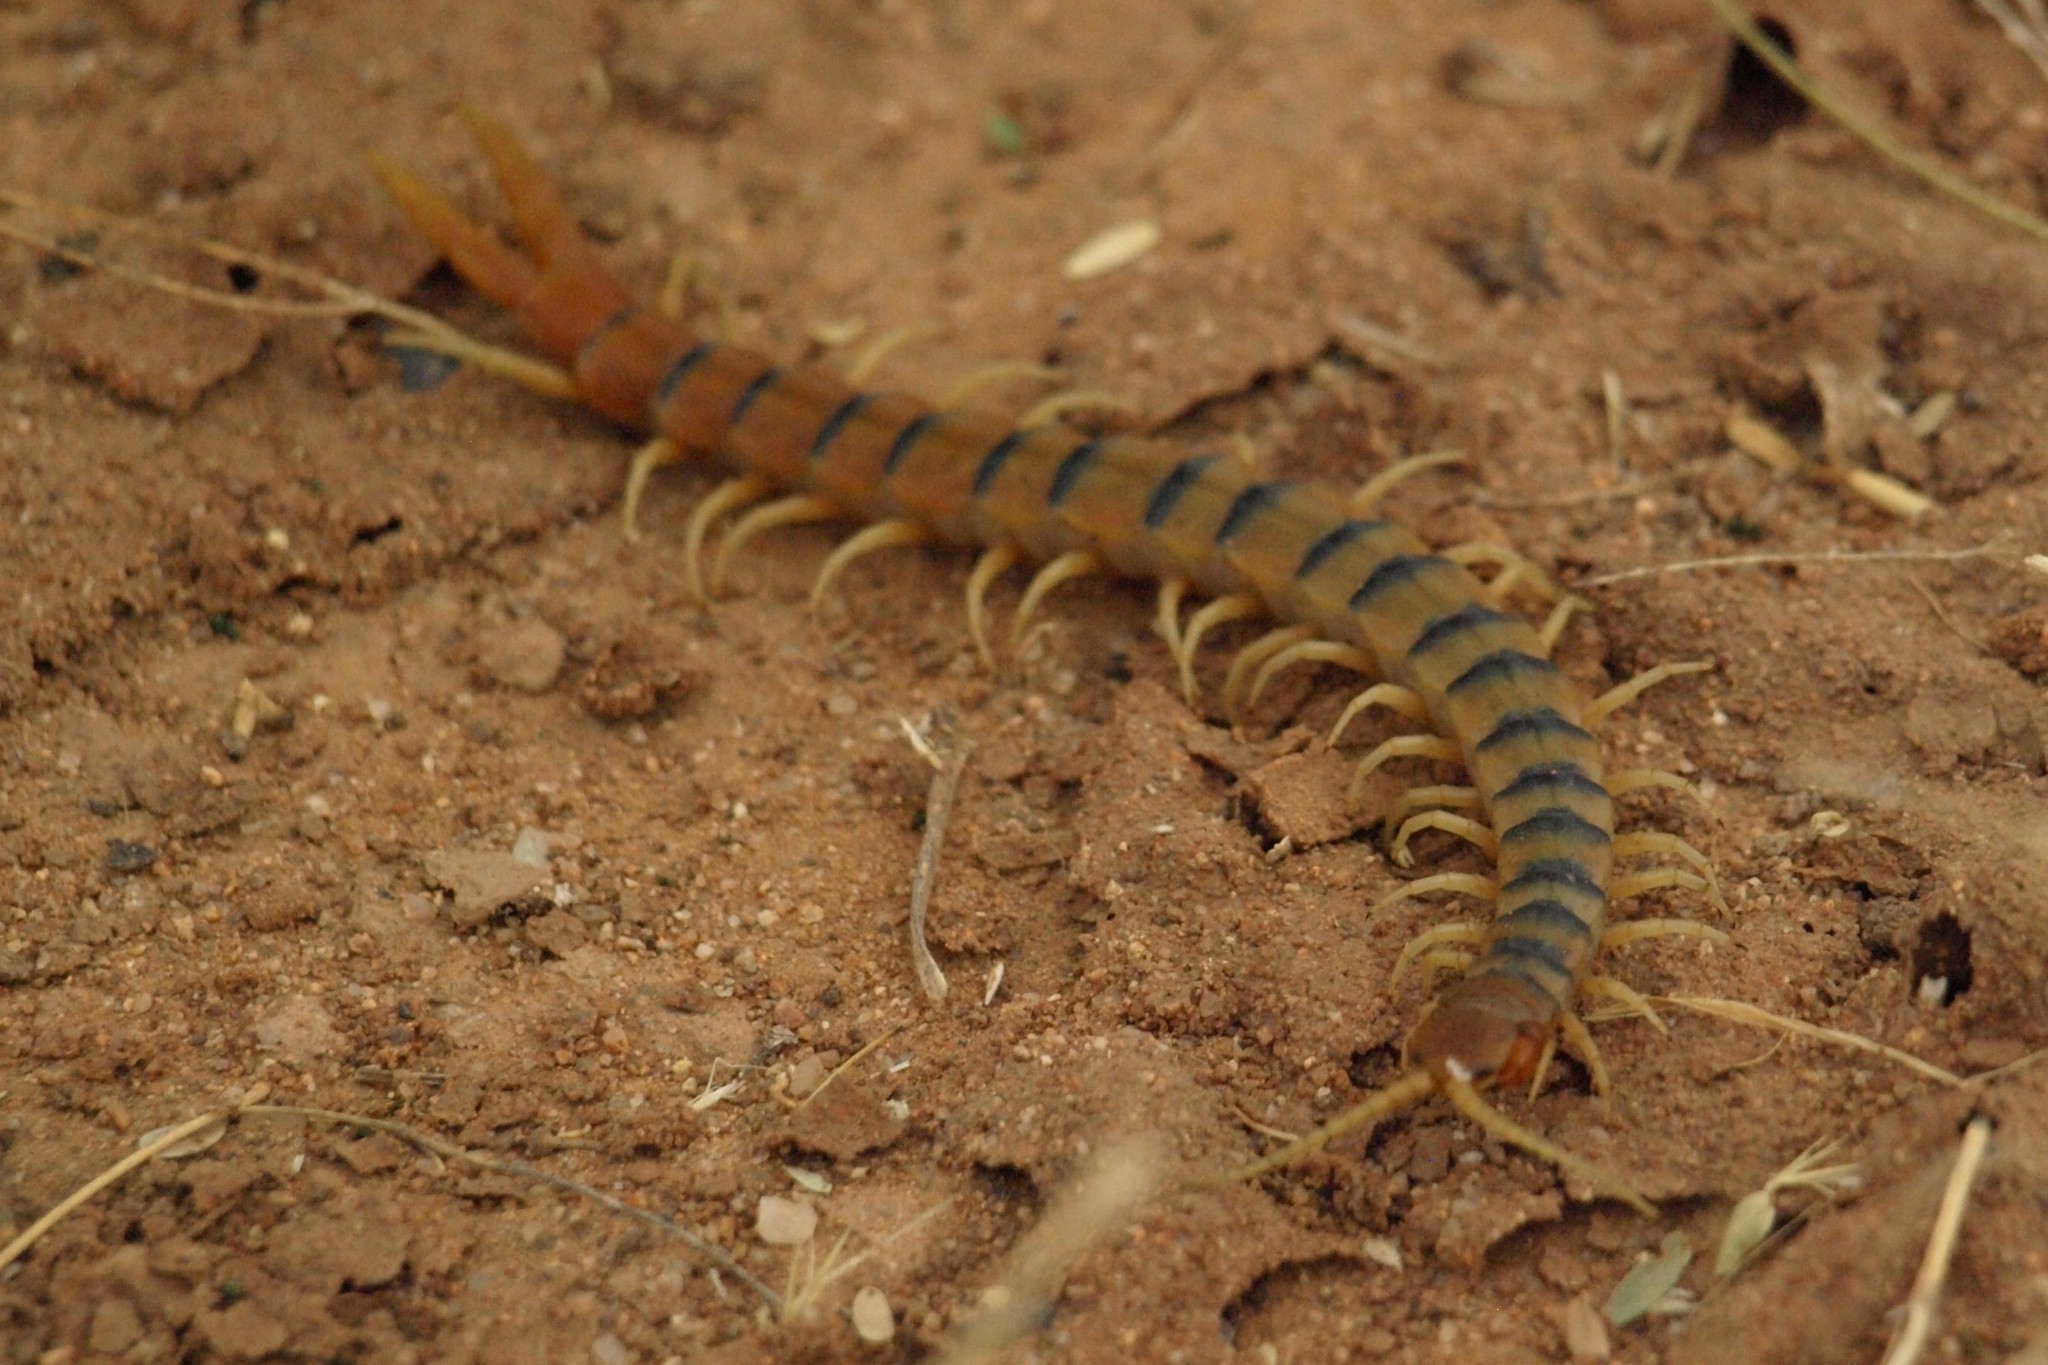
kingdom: Animalia
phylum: Arthropoda
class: Chilopoda
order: Scolopendromorpha
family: Scolopendridae
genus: Scolopendra
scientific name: Scolopendra polymorpha
